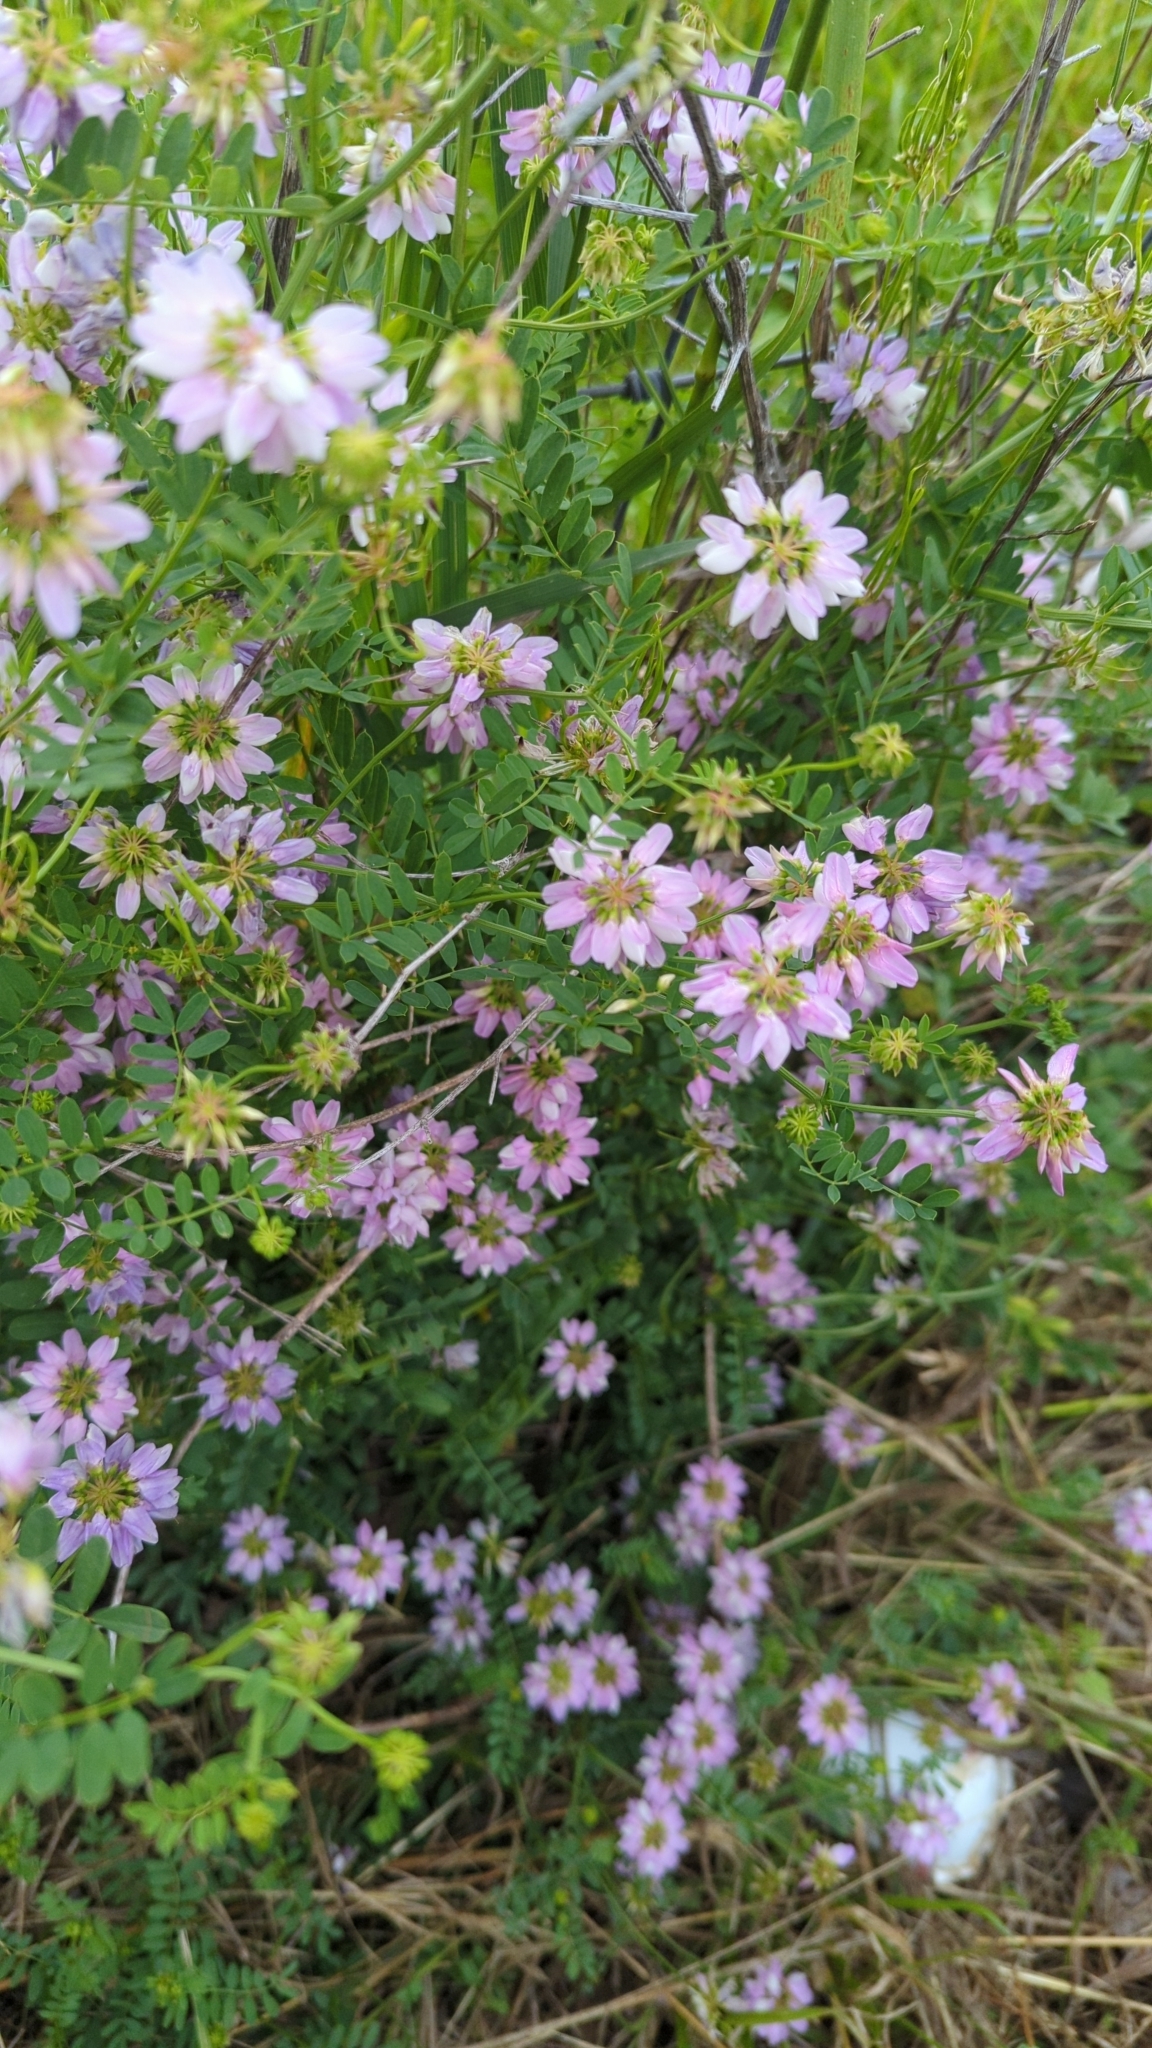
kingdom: Plantae
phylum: Tracheophyta
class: Magnoliopsida
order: Fabales
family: Fabaceae
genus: Coronilla
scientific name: Coronilla varia
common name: Crownvetch
